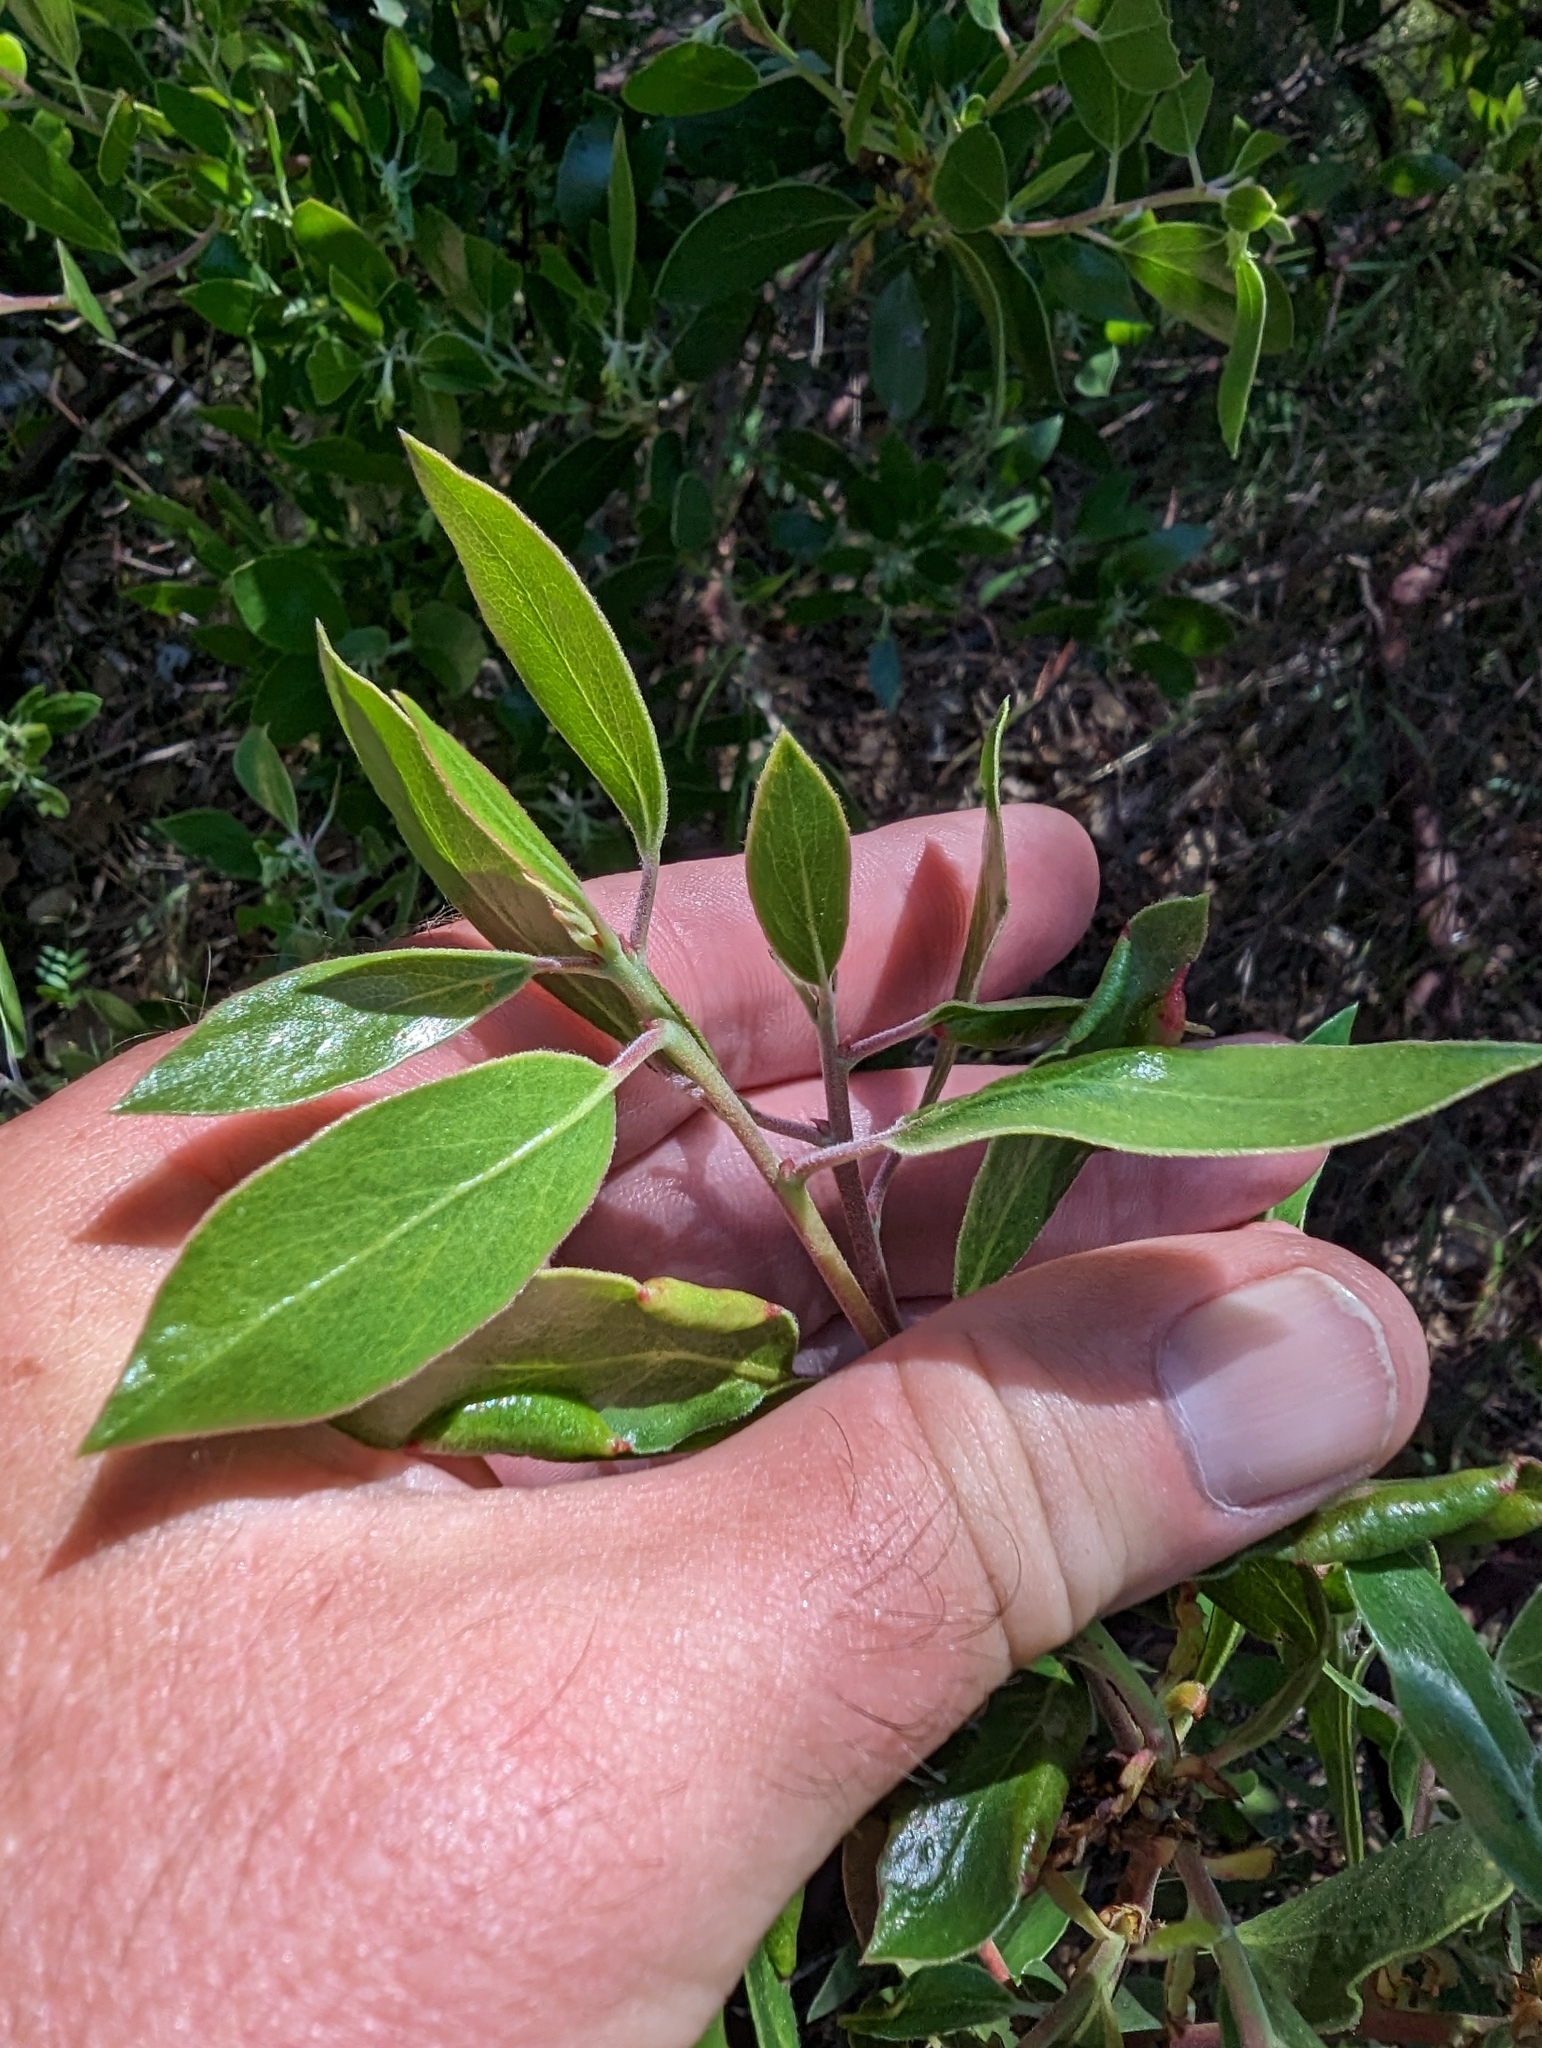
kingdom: Plantae
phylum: Tracheophyta
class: Magnoliopsida
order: Ericales
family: Ericaceae
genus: Arctostaphylos
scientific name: Arctostaphylos manzanita
